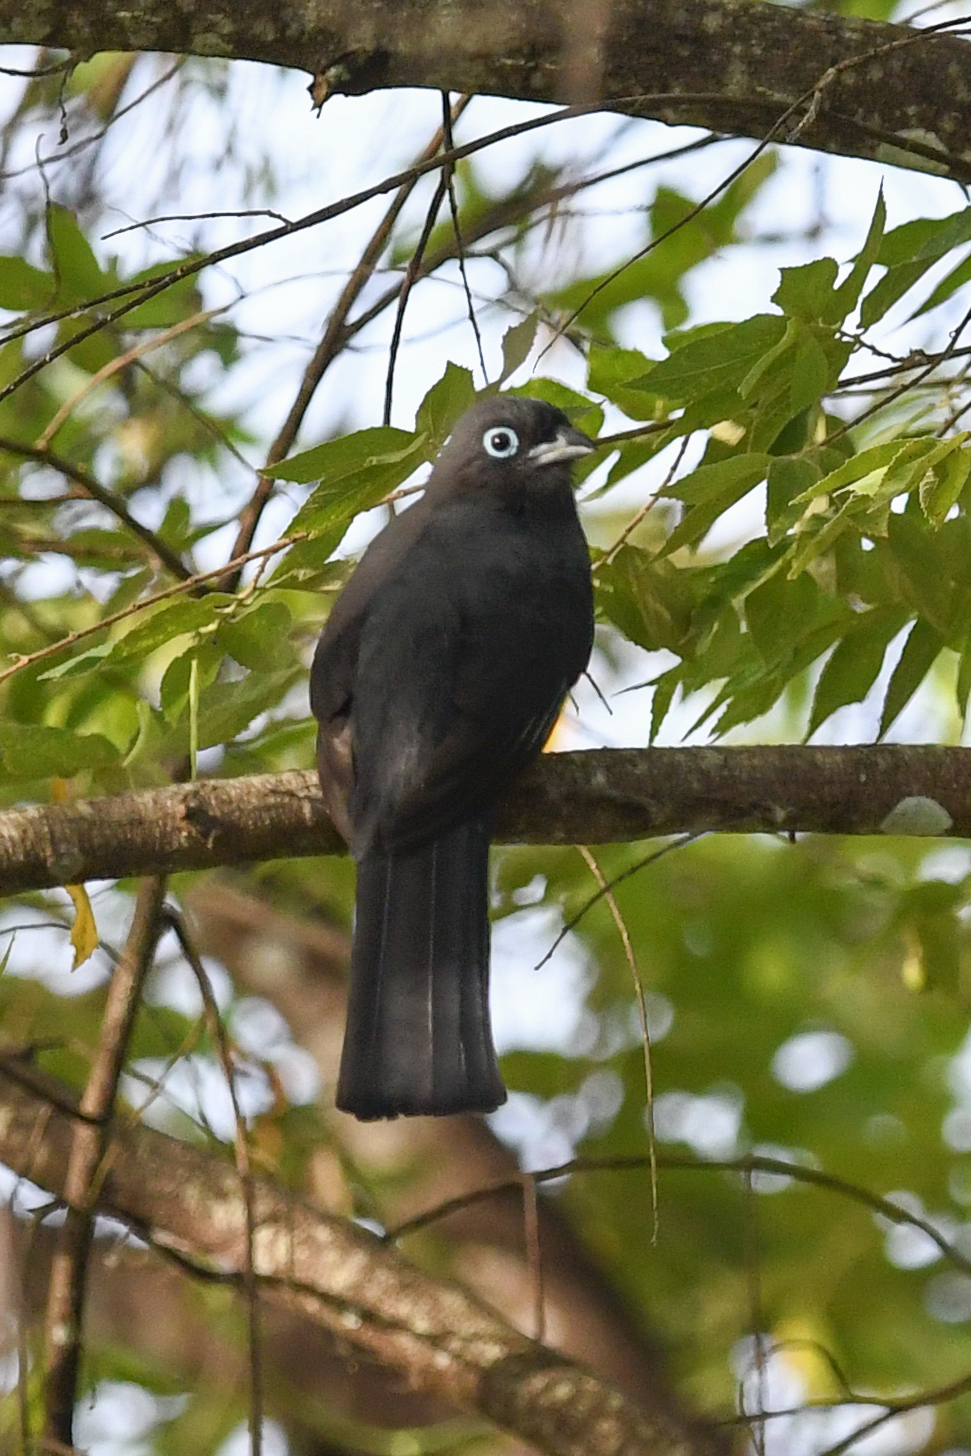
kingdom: Animalia
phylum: Chordata
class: Aves
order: Trogoniformes
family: Trogonidae
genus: Trogon
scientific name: Trogon melanocephalus
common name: Black-headed trogon
